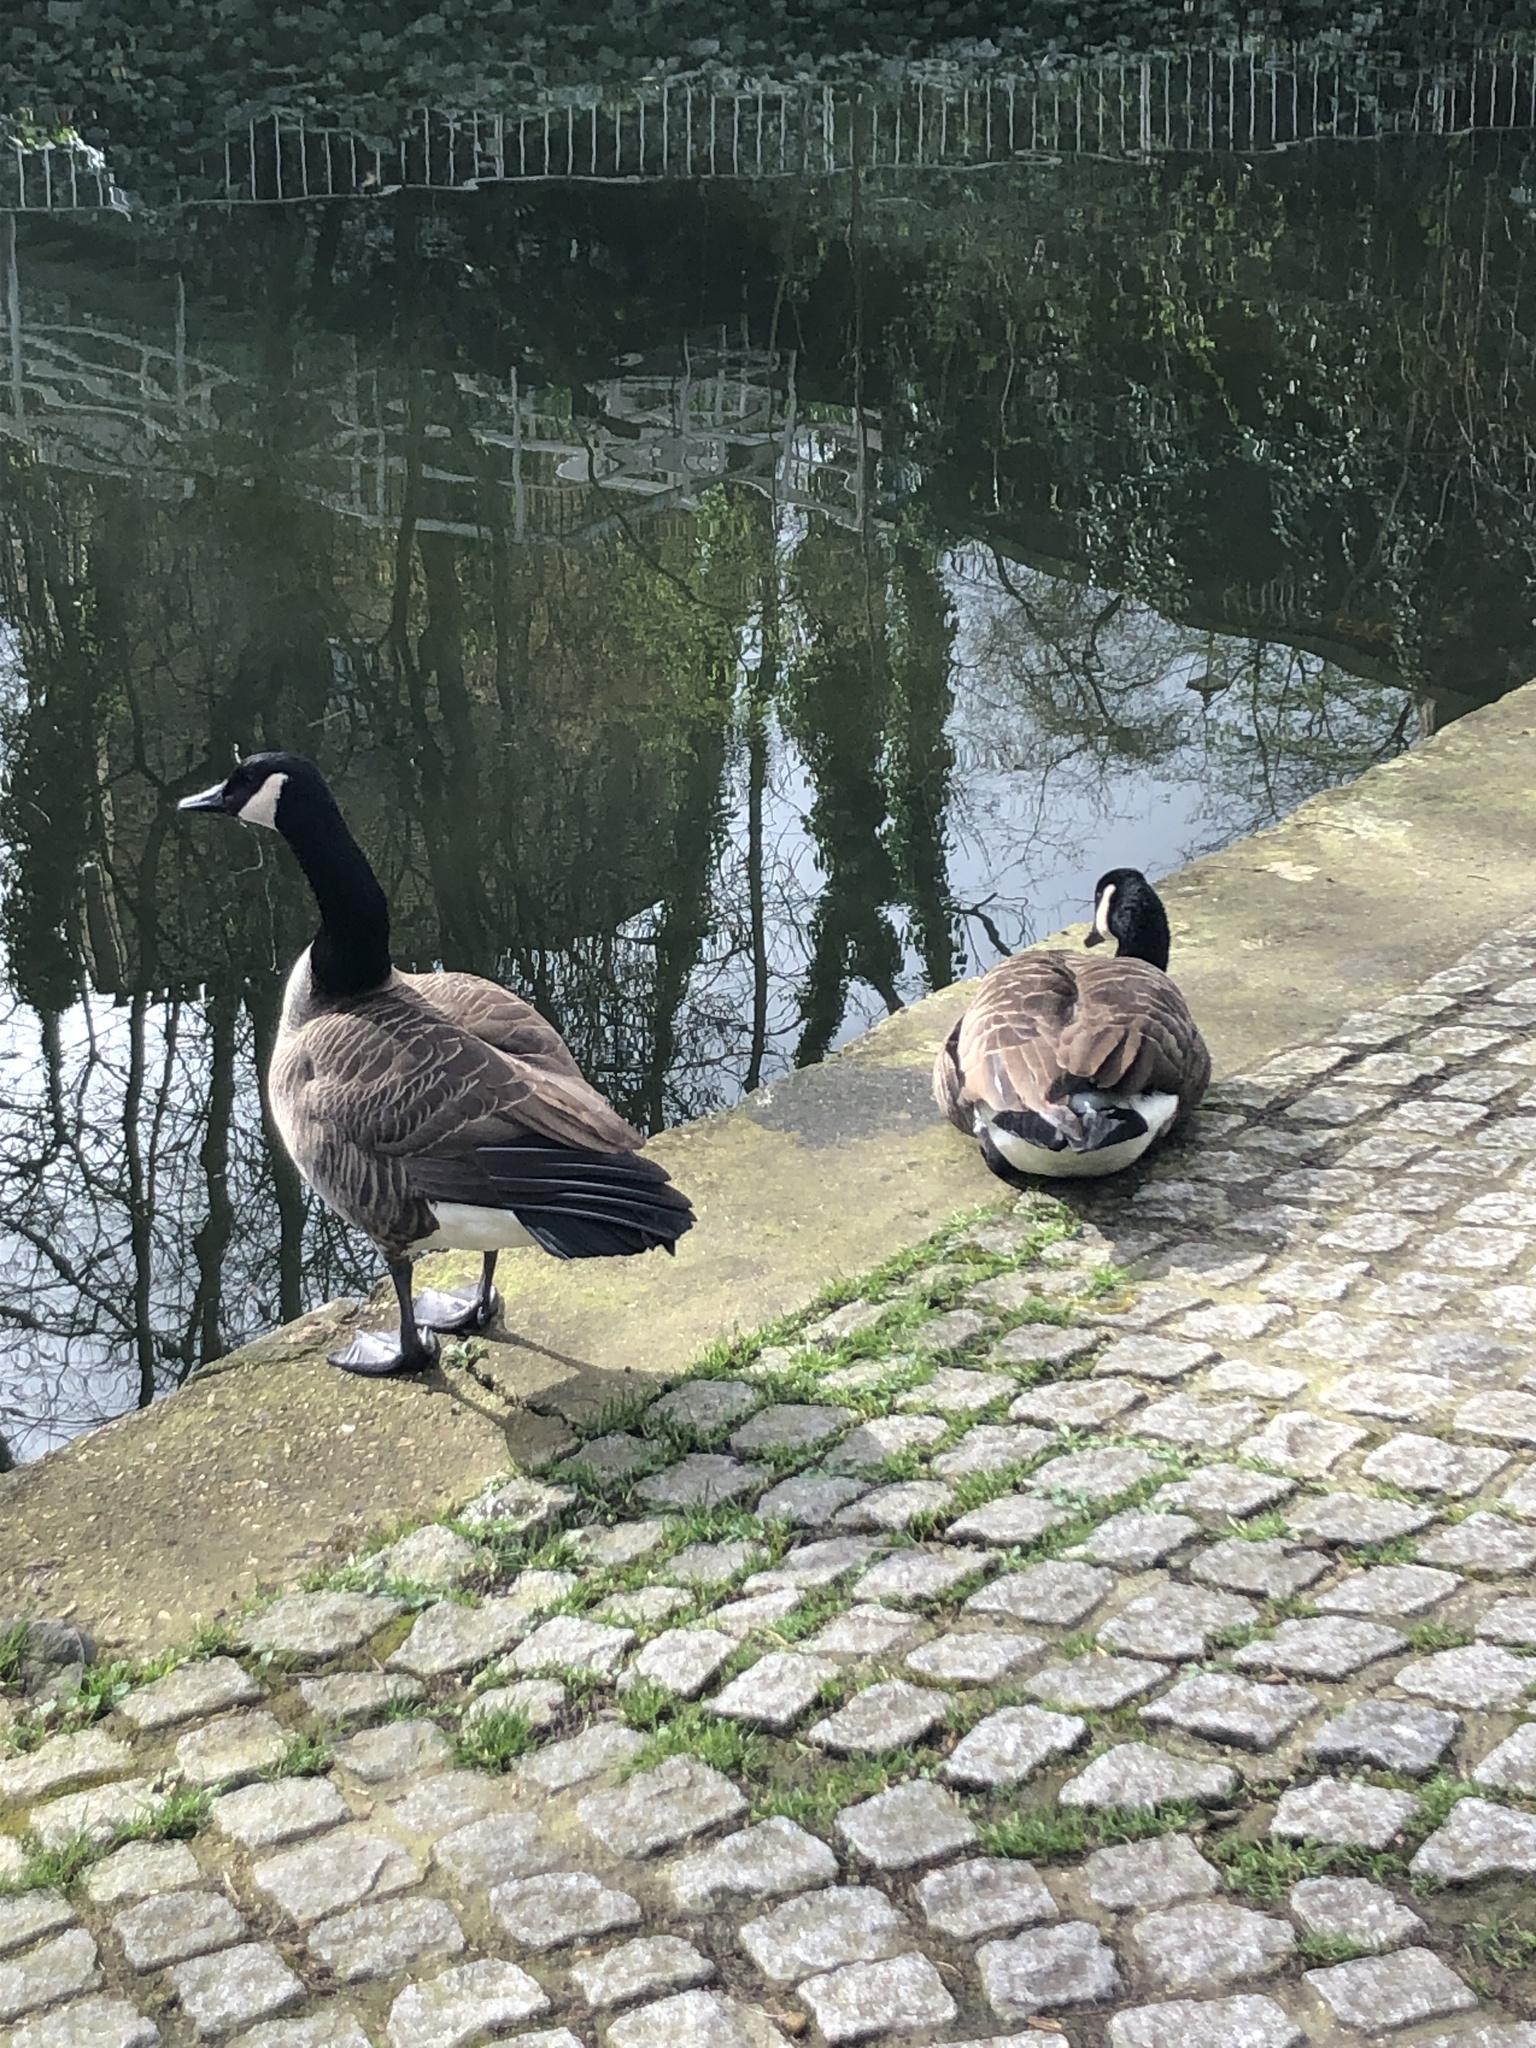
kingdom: Animalia
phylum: Chordata
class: Aves
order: Anseriformes
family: Anatidae
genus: Branta
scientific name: Branta canadensis
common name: Canada goose
